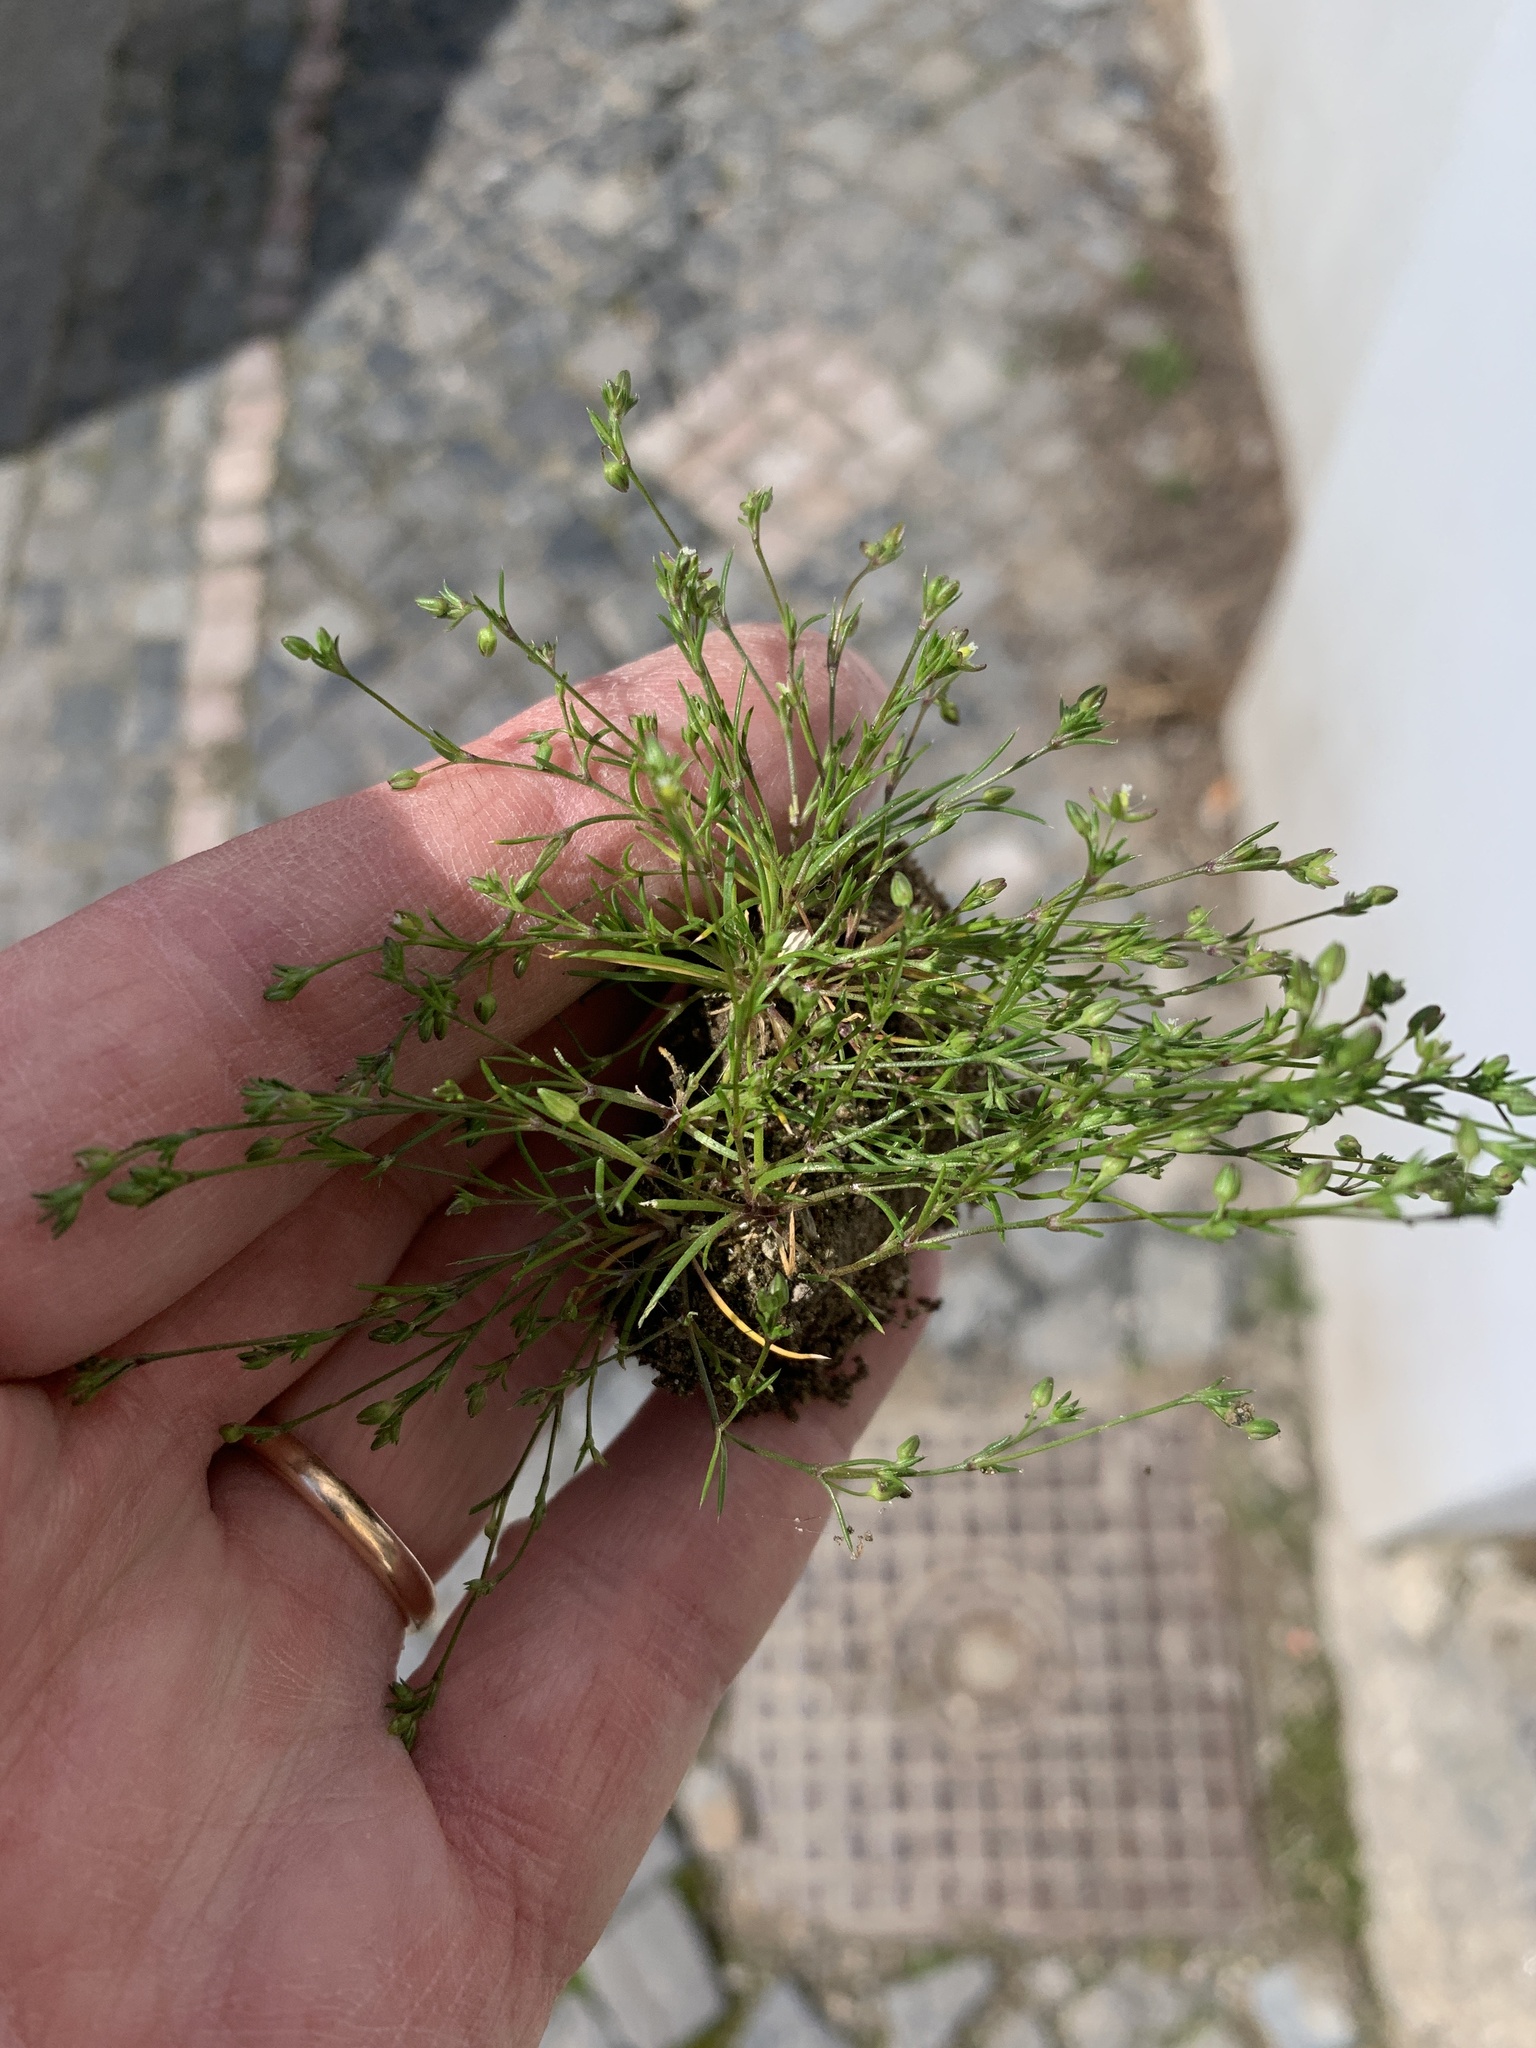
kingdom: Plantae
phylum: Tracheophyta
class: Magnoliopsida
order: Caryophyllales
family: Caryophyllaceae
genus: Sagina
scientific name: Sagina procumbens
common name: Procumbent pearlwort
